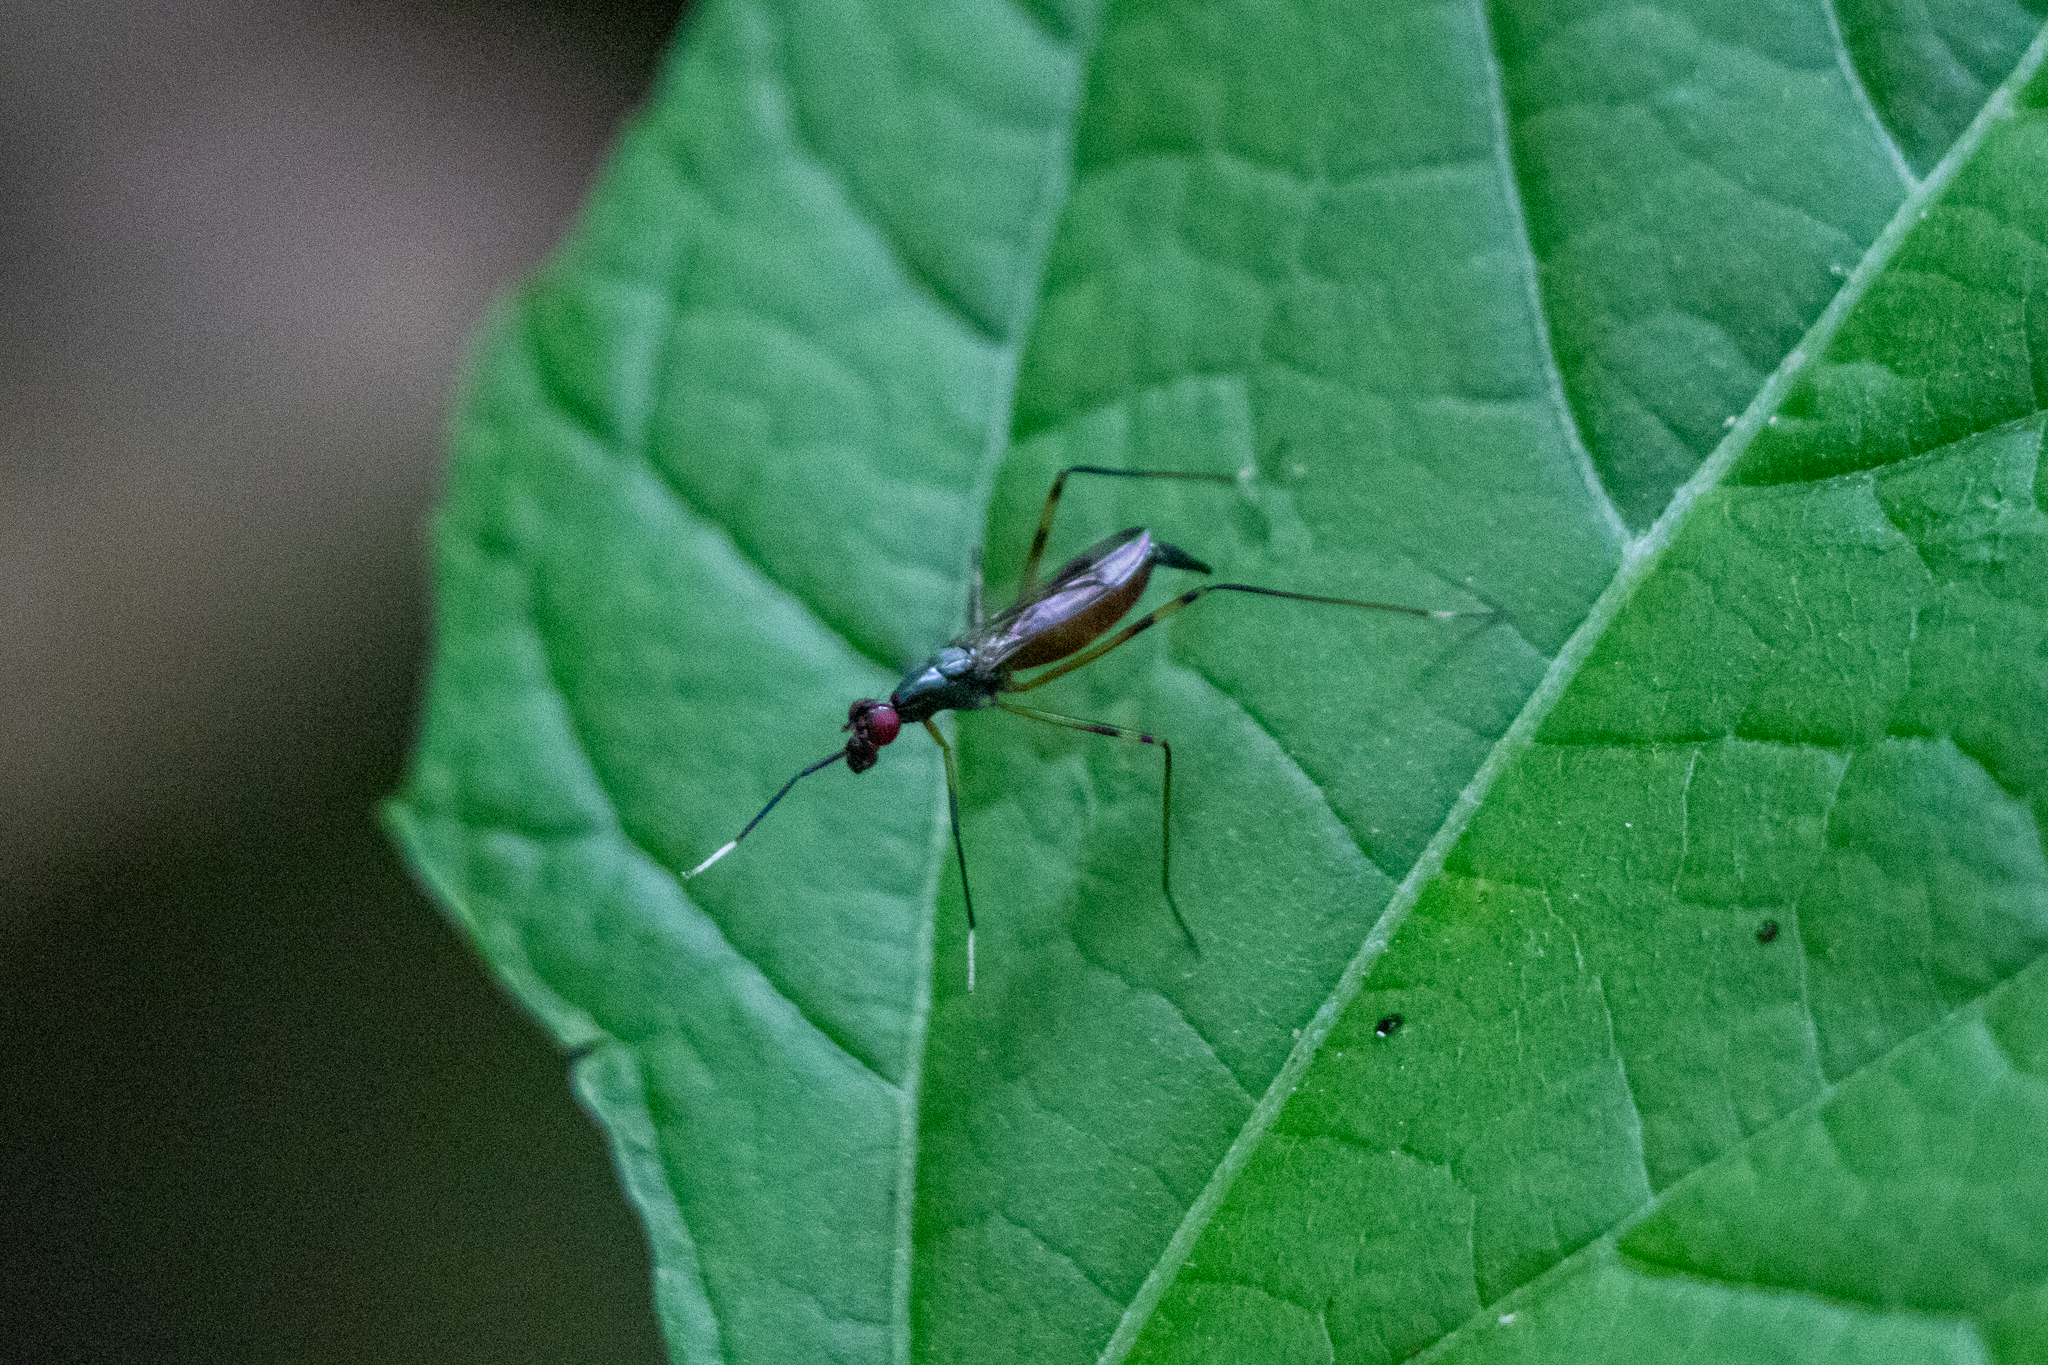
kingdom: Animalia
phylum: Arthropoda
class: Insecta
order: Diptera
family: Micropezidae
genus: Rainieria
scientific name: Rainieria antennaepes
